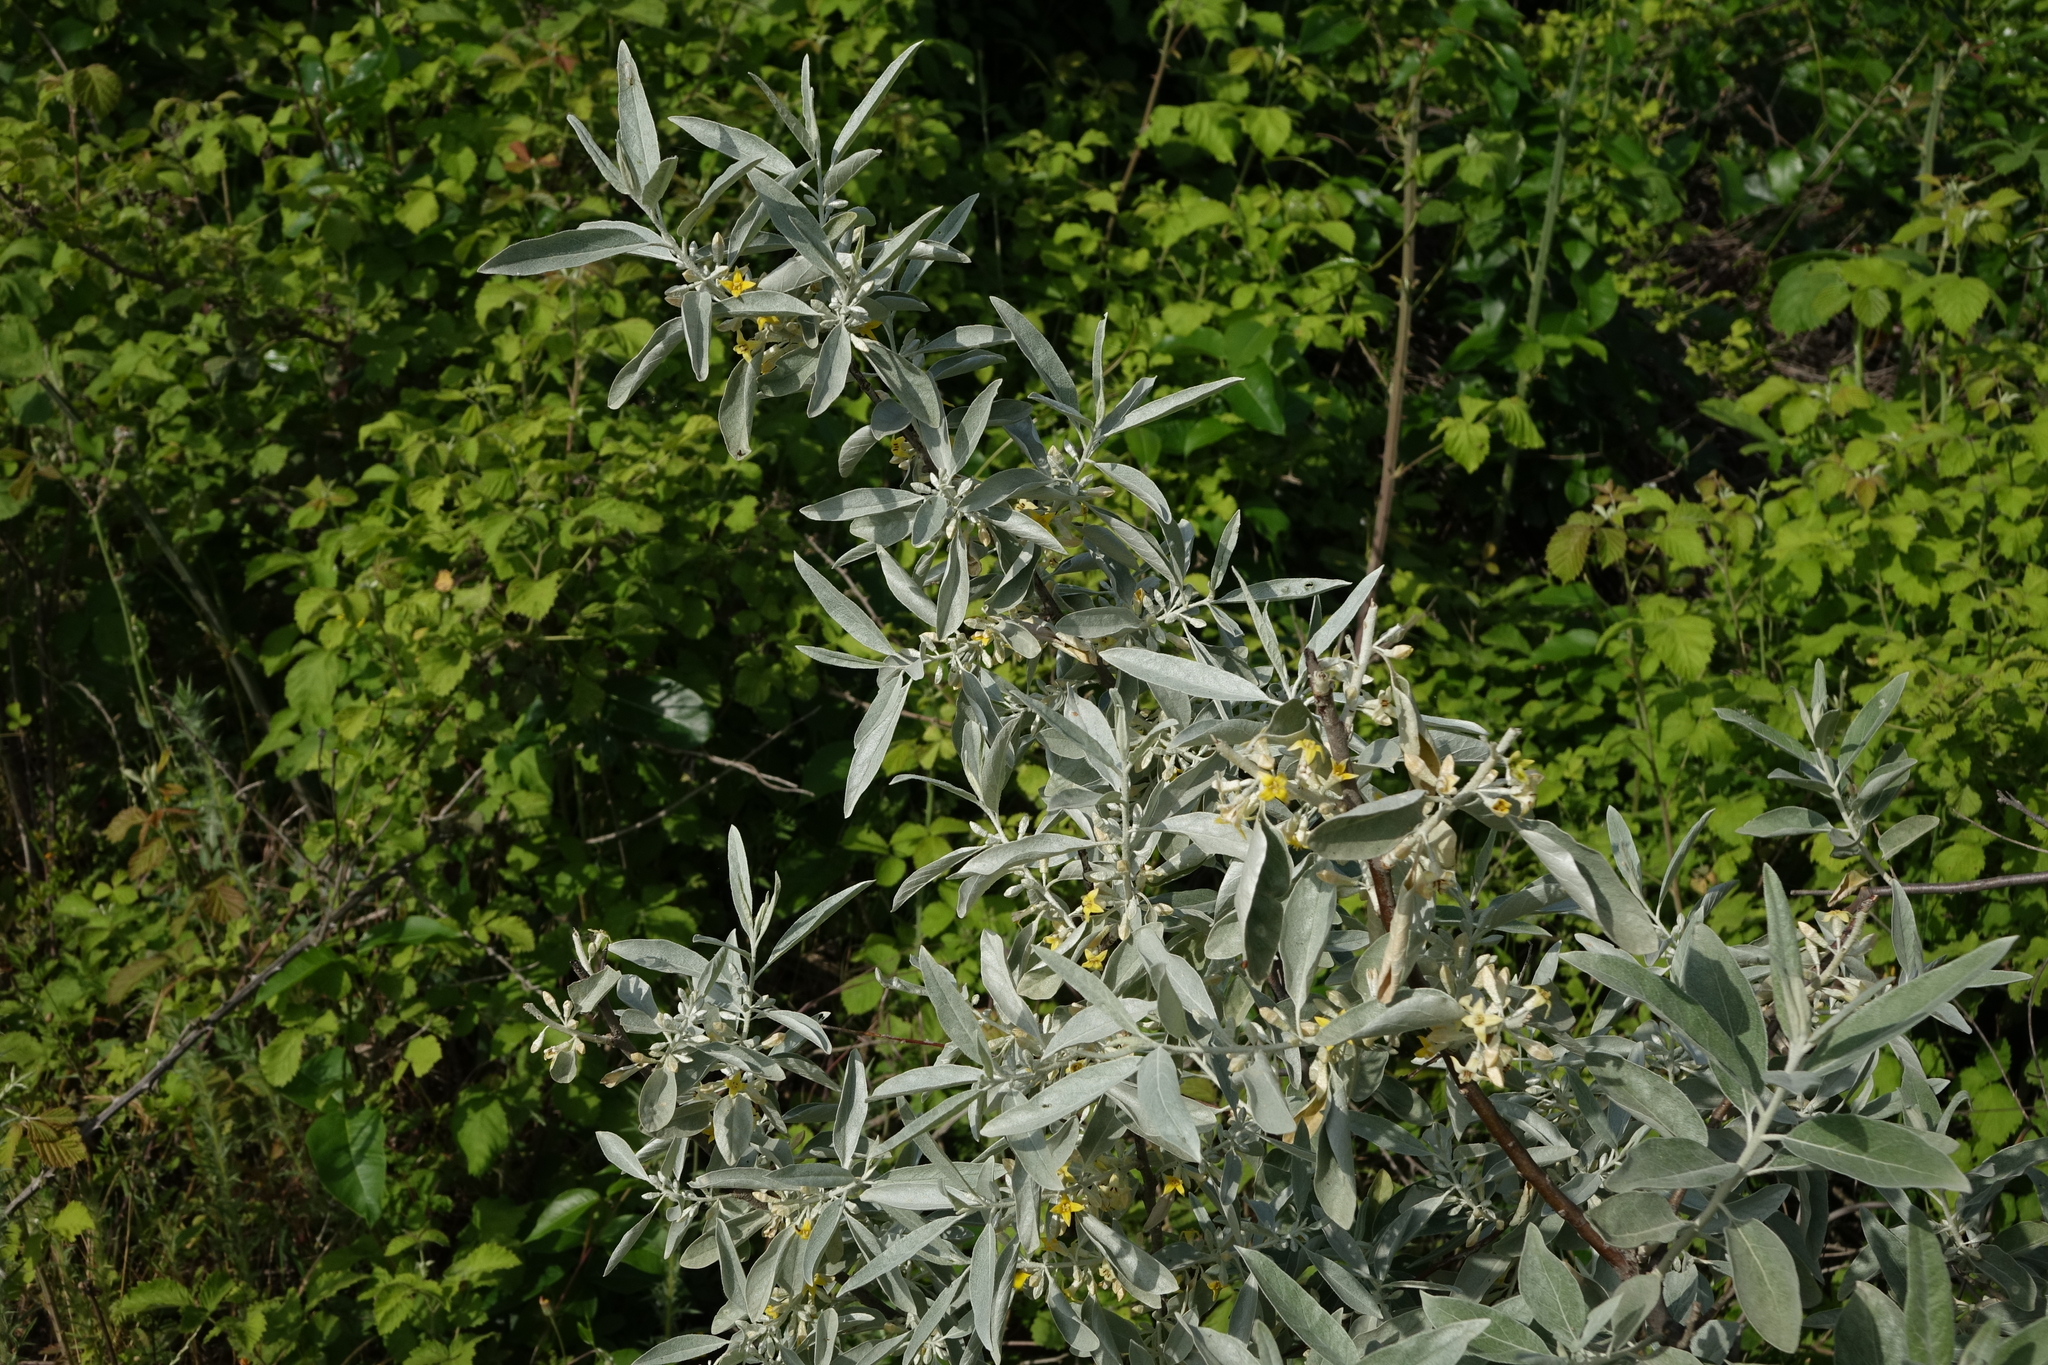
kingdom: Plantae
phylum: Tracheophyta
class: Magnoliopsida
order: Rosales
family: Elaeagnaceae
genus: Elaeagnus
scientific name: Elaeagnus angustifolia
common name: Russian olive
